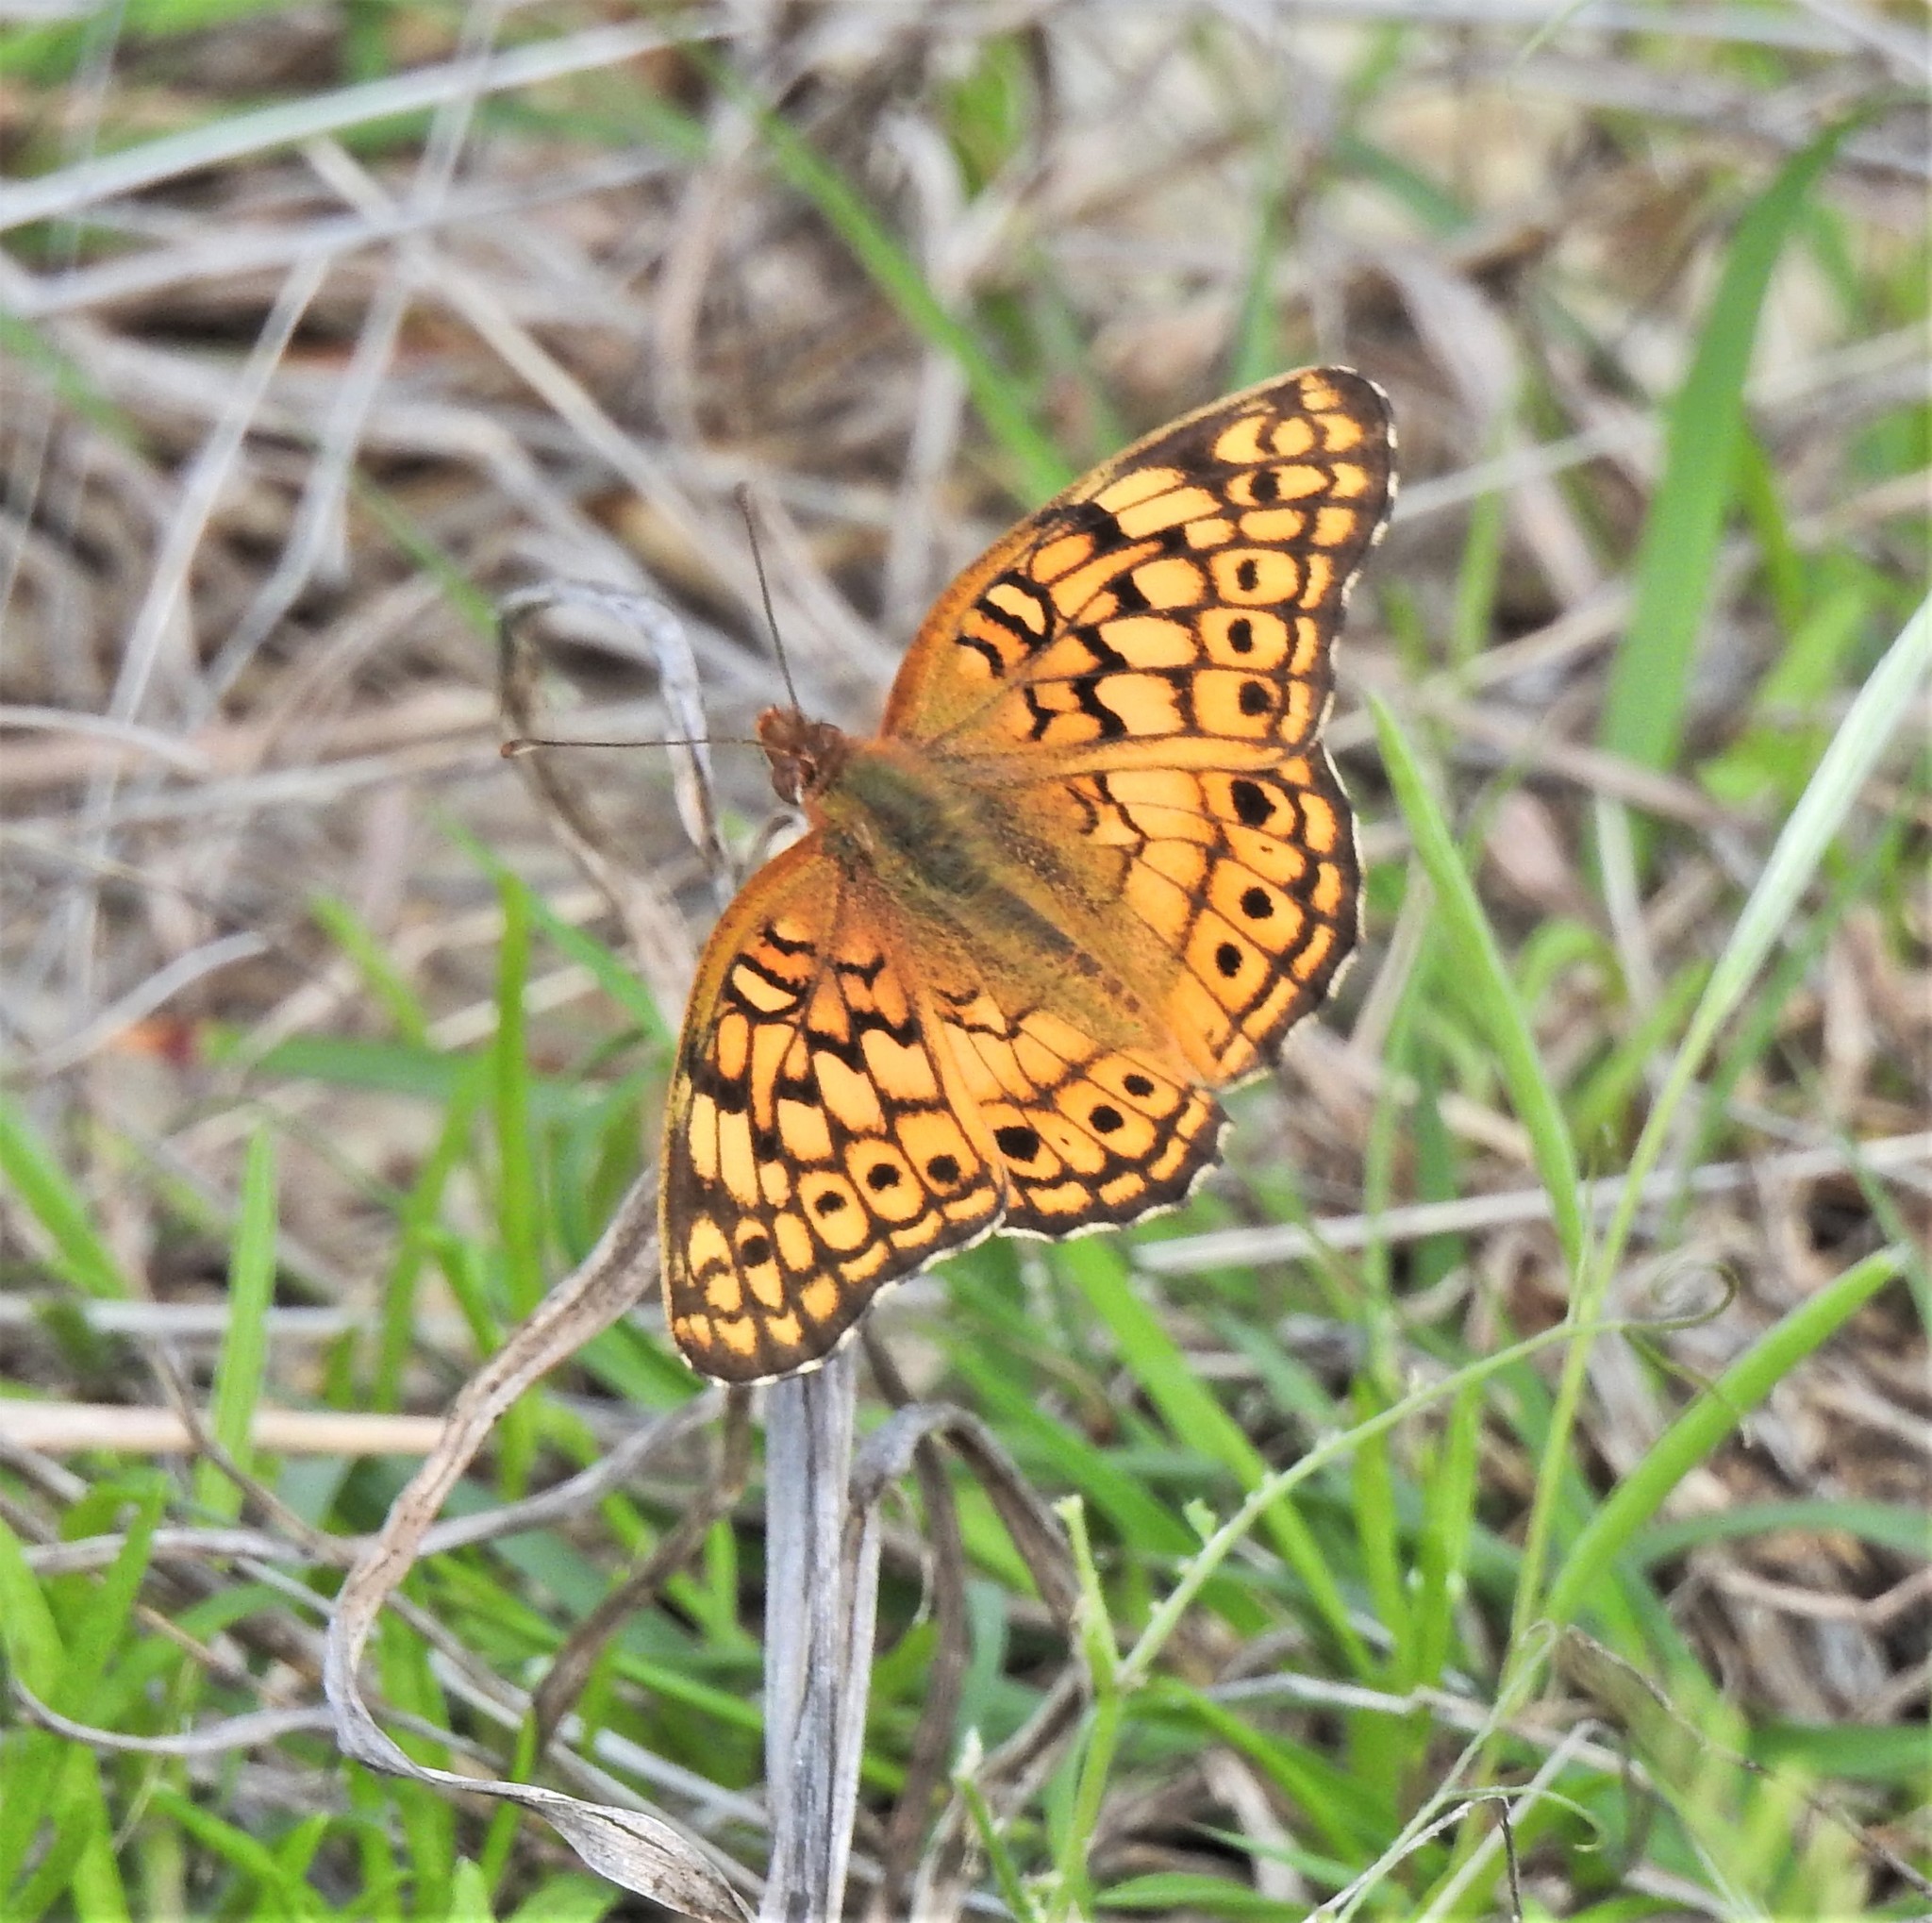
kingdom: Animalia
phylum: Arthropoda
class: Insecta
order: Lepidoptera
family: Nymphalidae
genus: Euptoieta
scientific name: Euptoieta claudia
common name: Variegated fritillary
